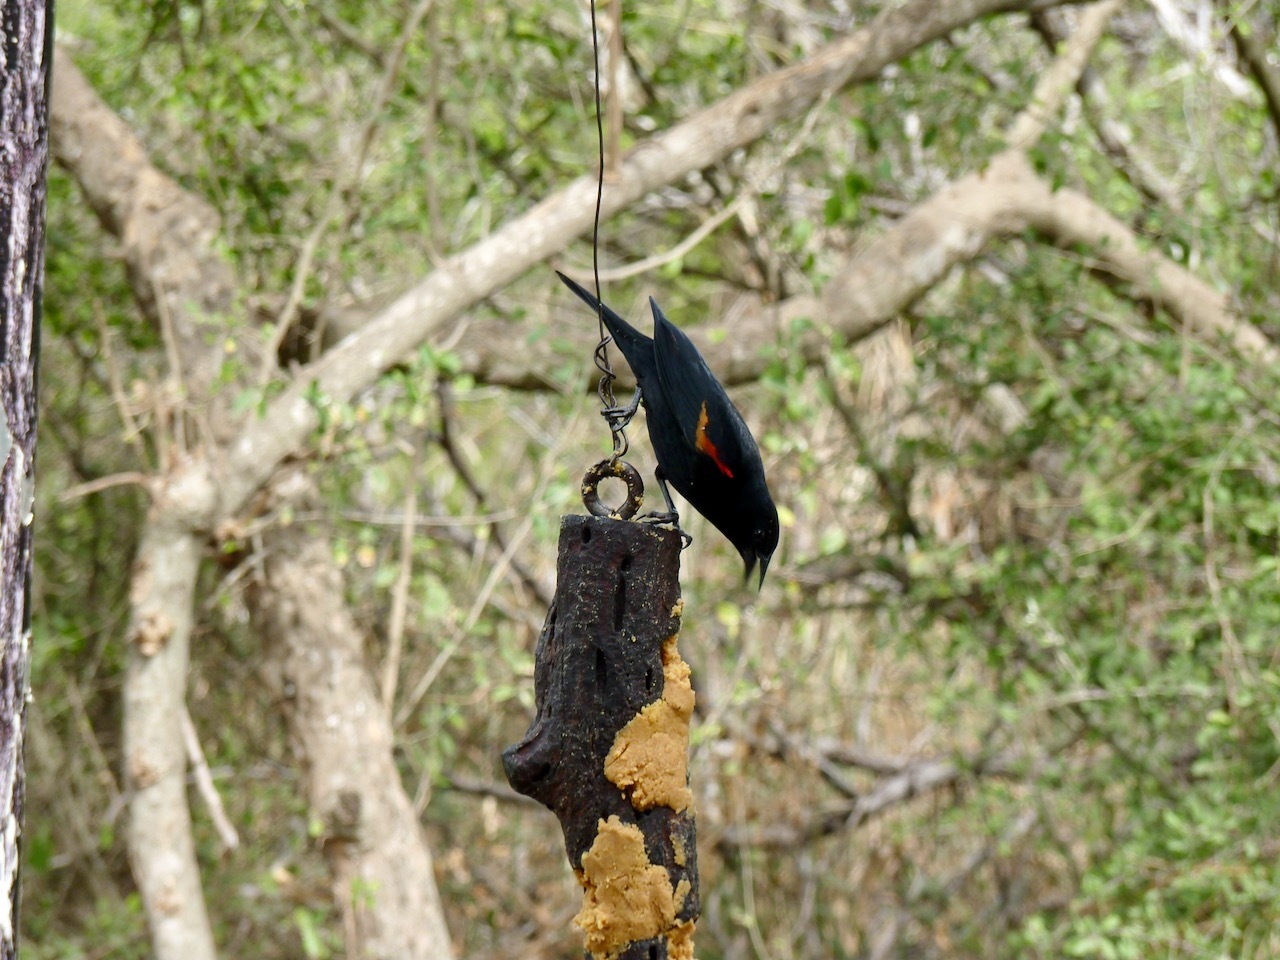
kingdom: Animalia
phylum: Chordata
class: Aves
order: Passeriformes
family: Icteridae
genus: Agelaius
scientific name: Agelaius phoeniceus
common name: Red-winged blackbird
